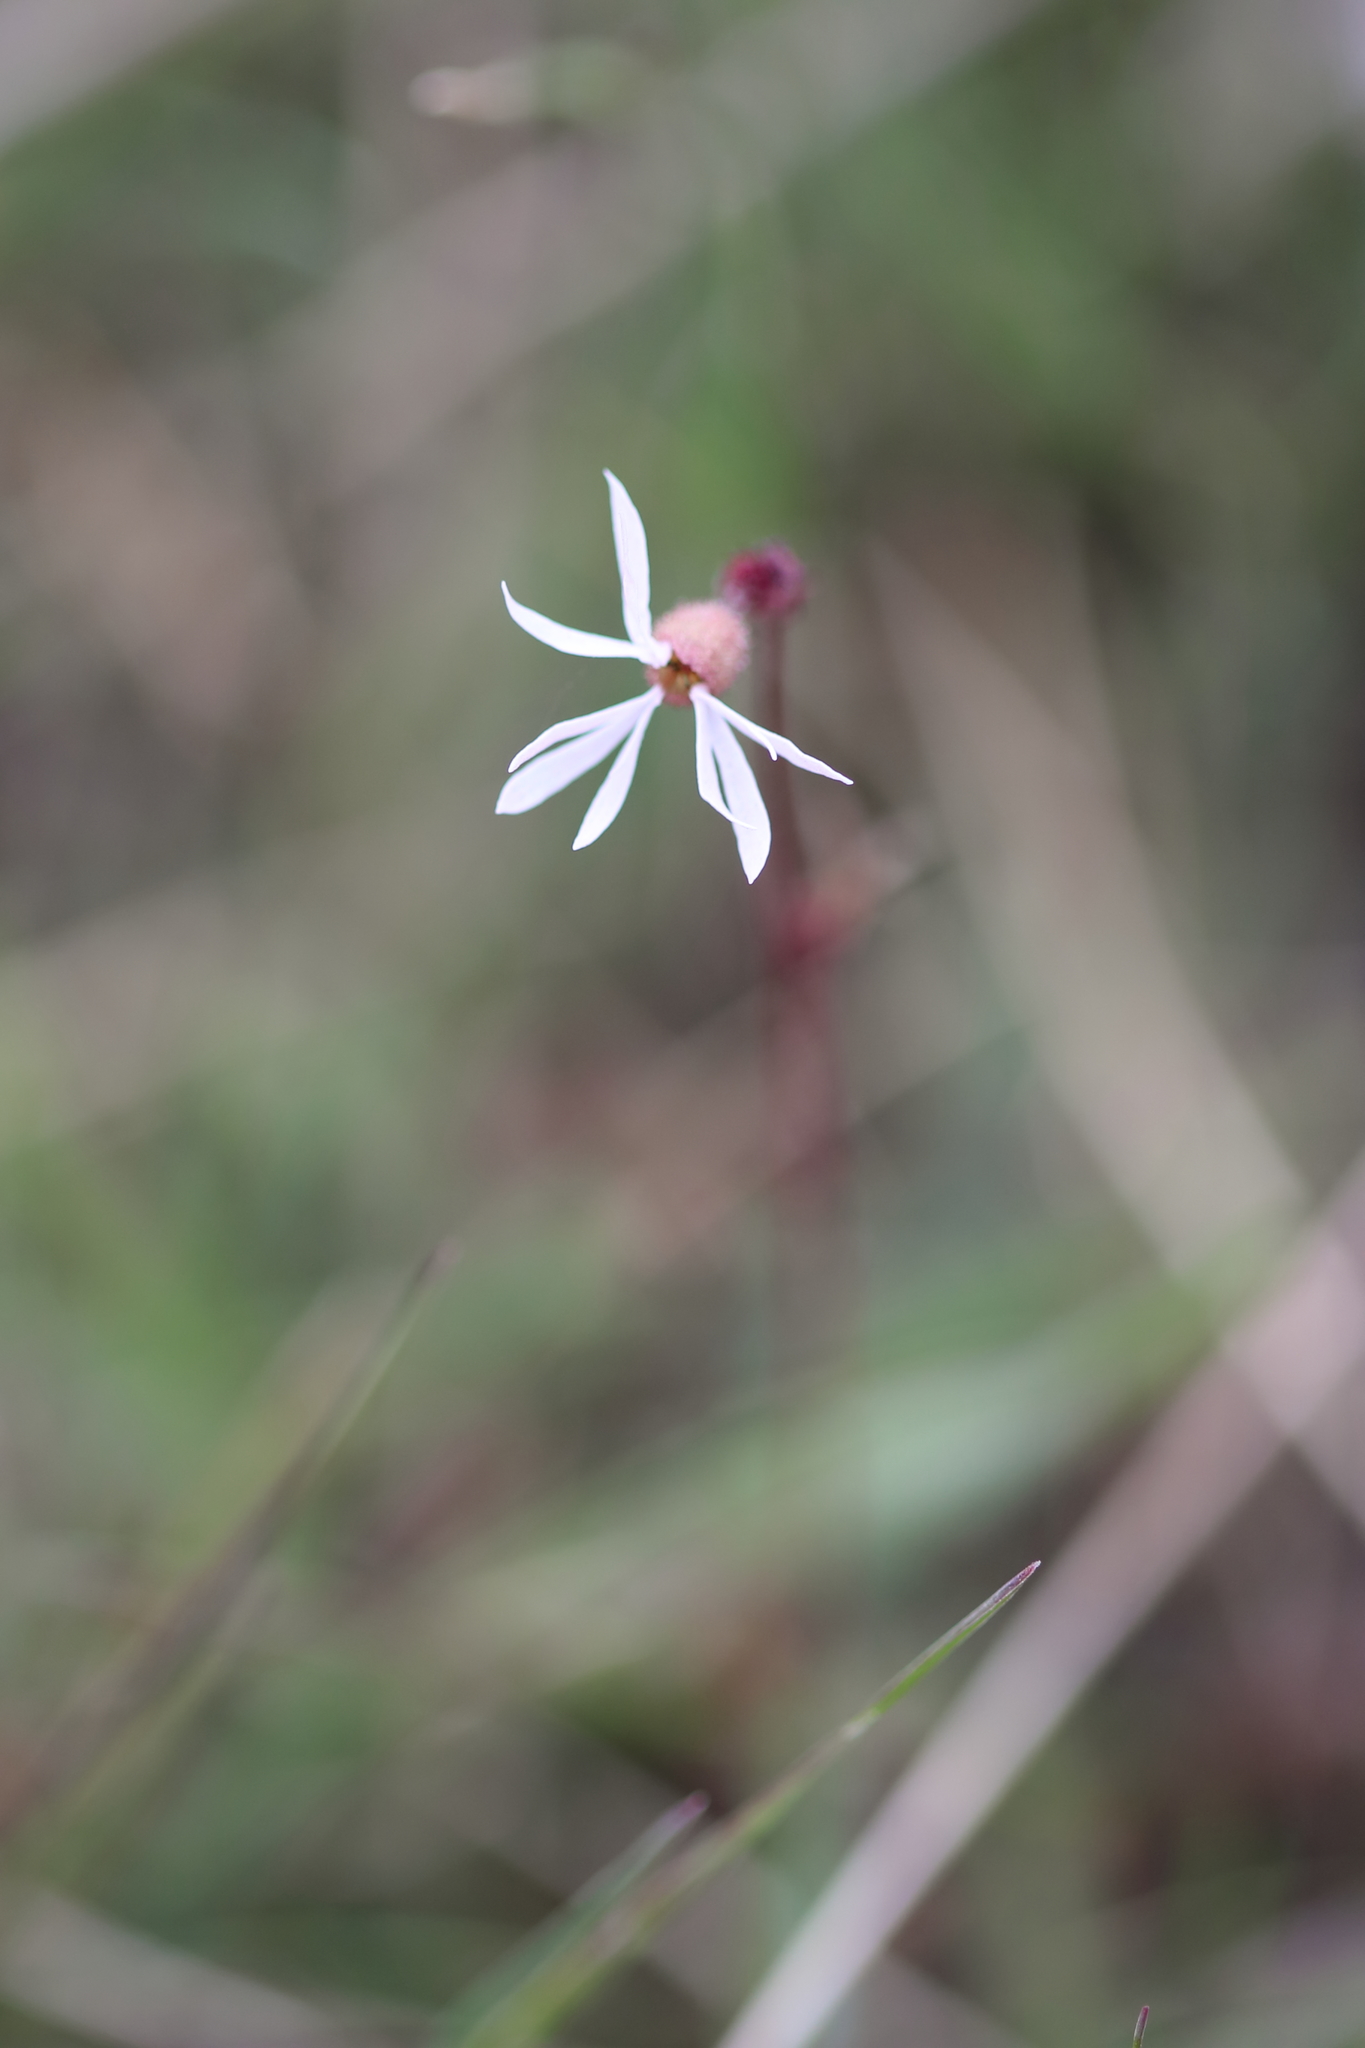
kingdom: Plantae
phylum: Tracheophyta
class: Magnoliopsida
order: Saxifragales
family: Saxifragaceae
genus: Lithophragma
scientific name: Lithophragma glabrum
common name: Bulbous prairie-star
